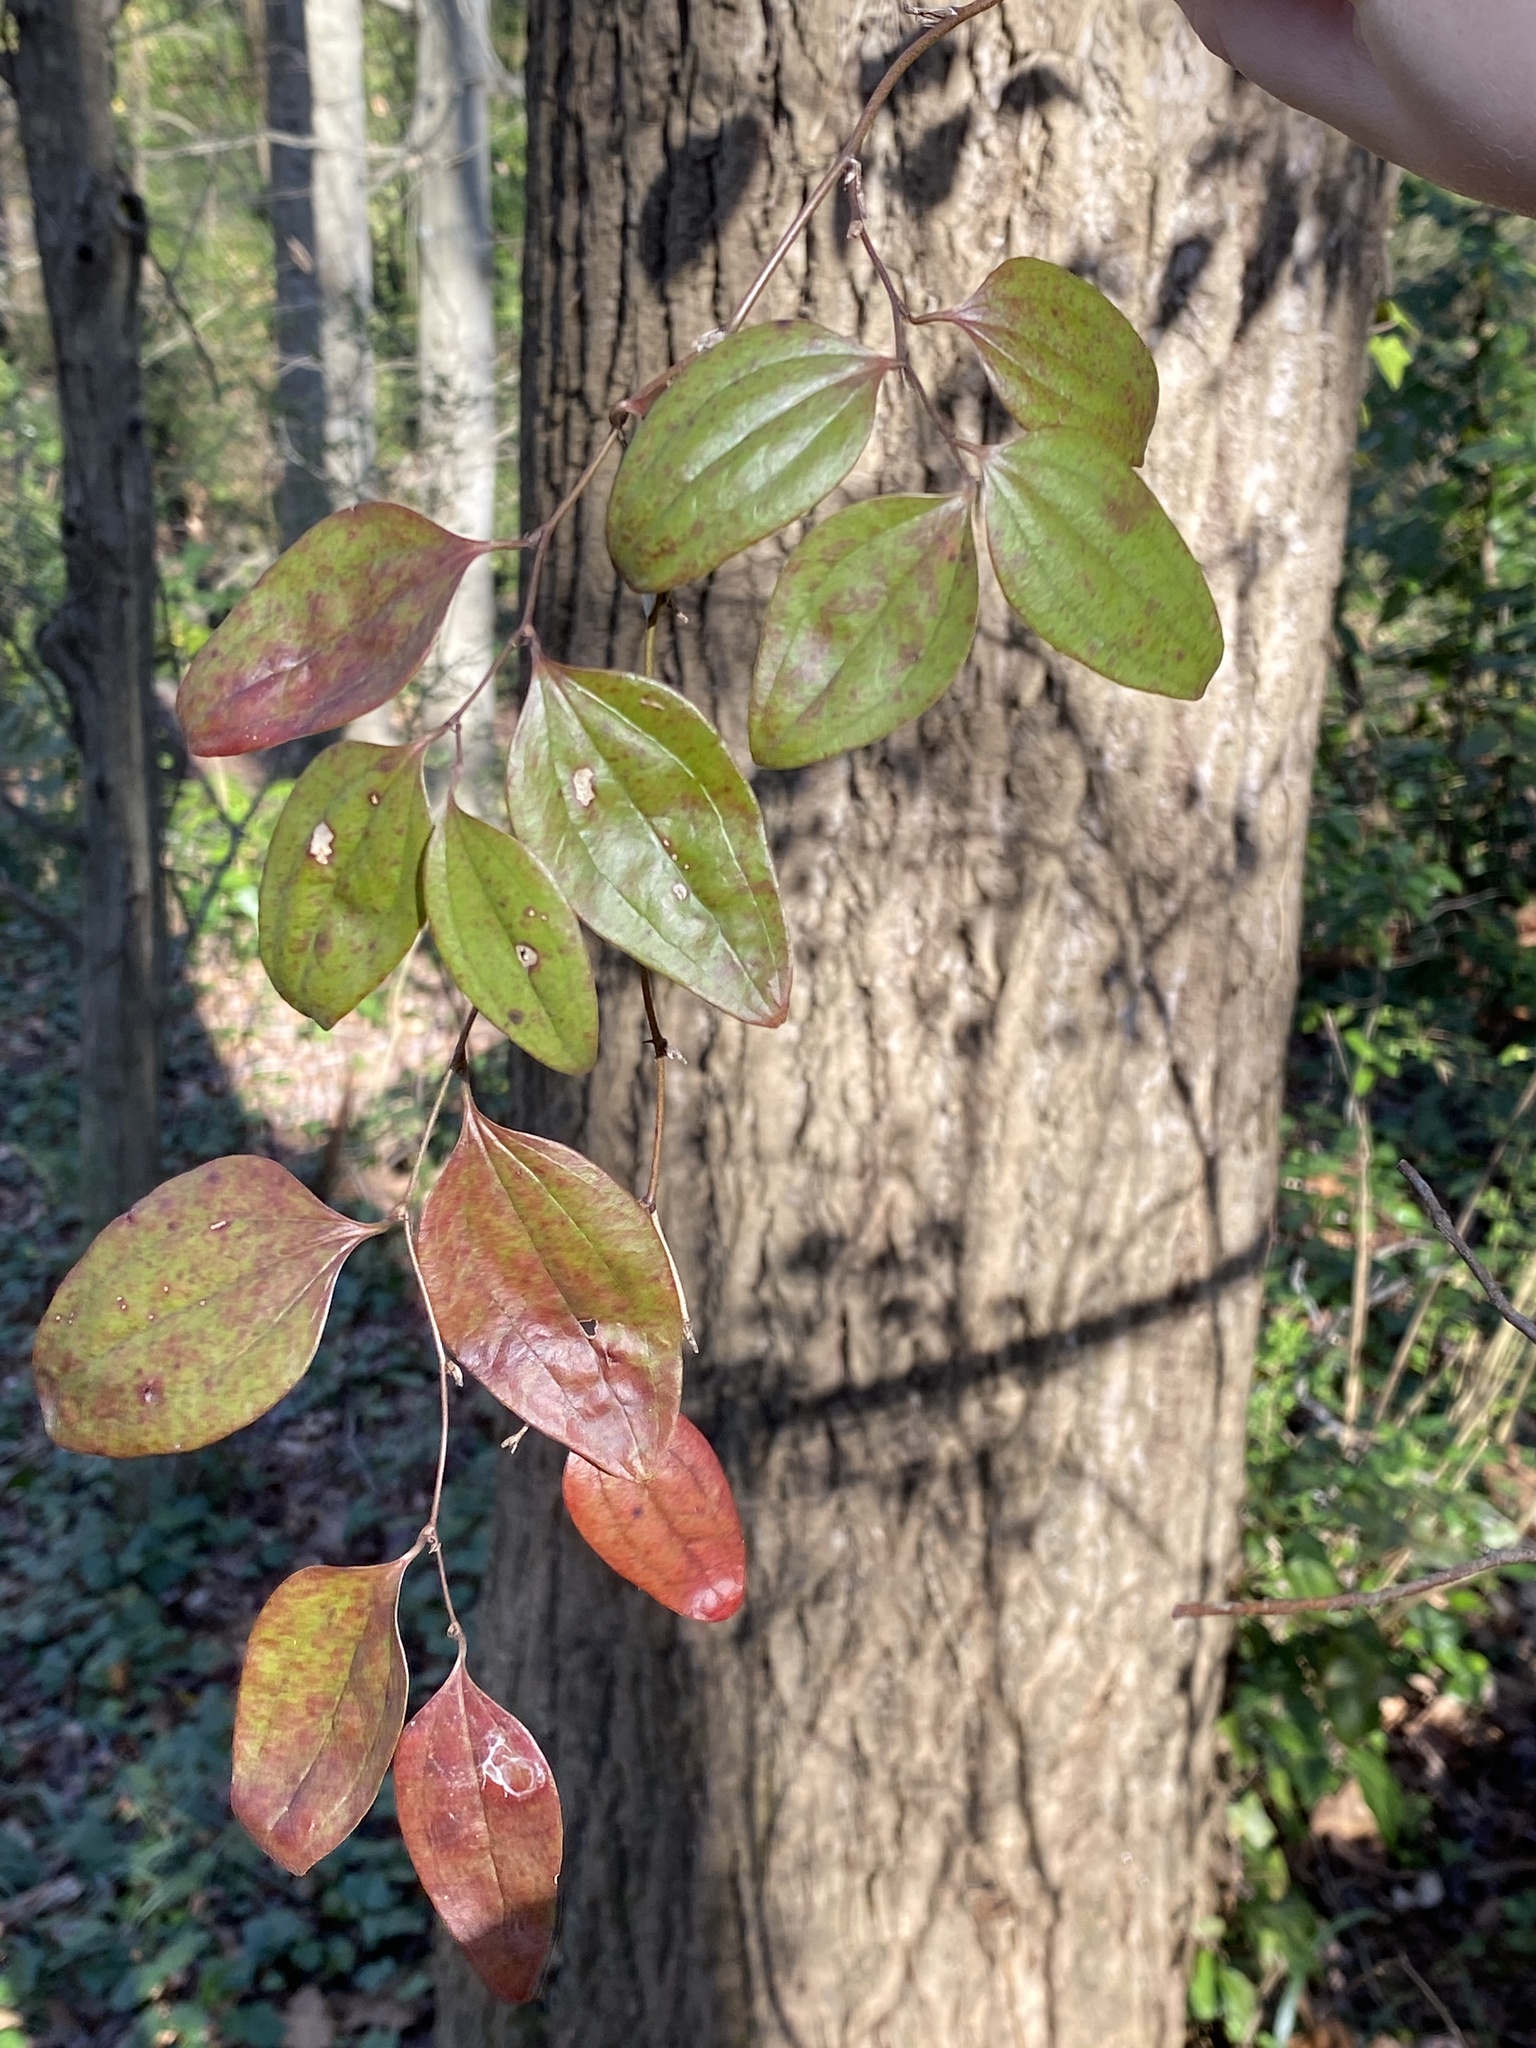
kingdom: Plantae
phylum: Tracheophyta
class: Liliopsida
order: Liliales
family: Smilacaceae
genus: Smilax
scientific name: Smilax glauca
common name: Cat greenbrier
